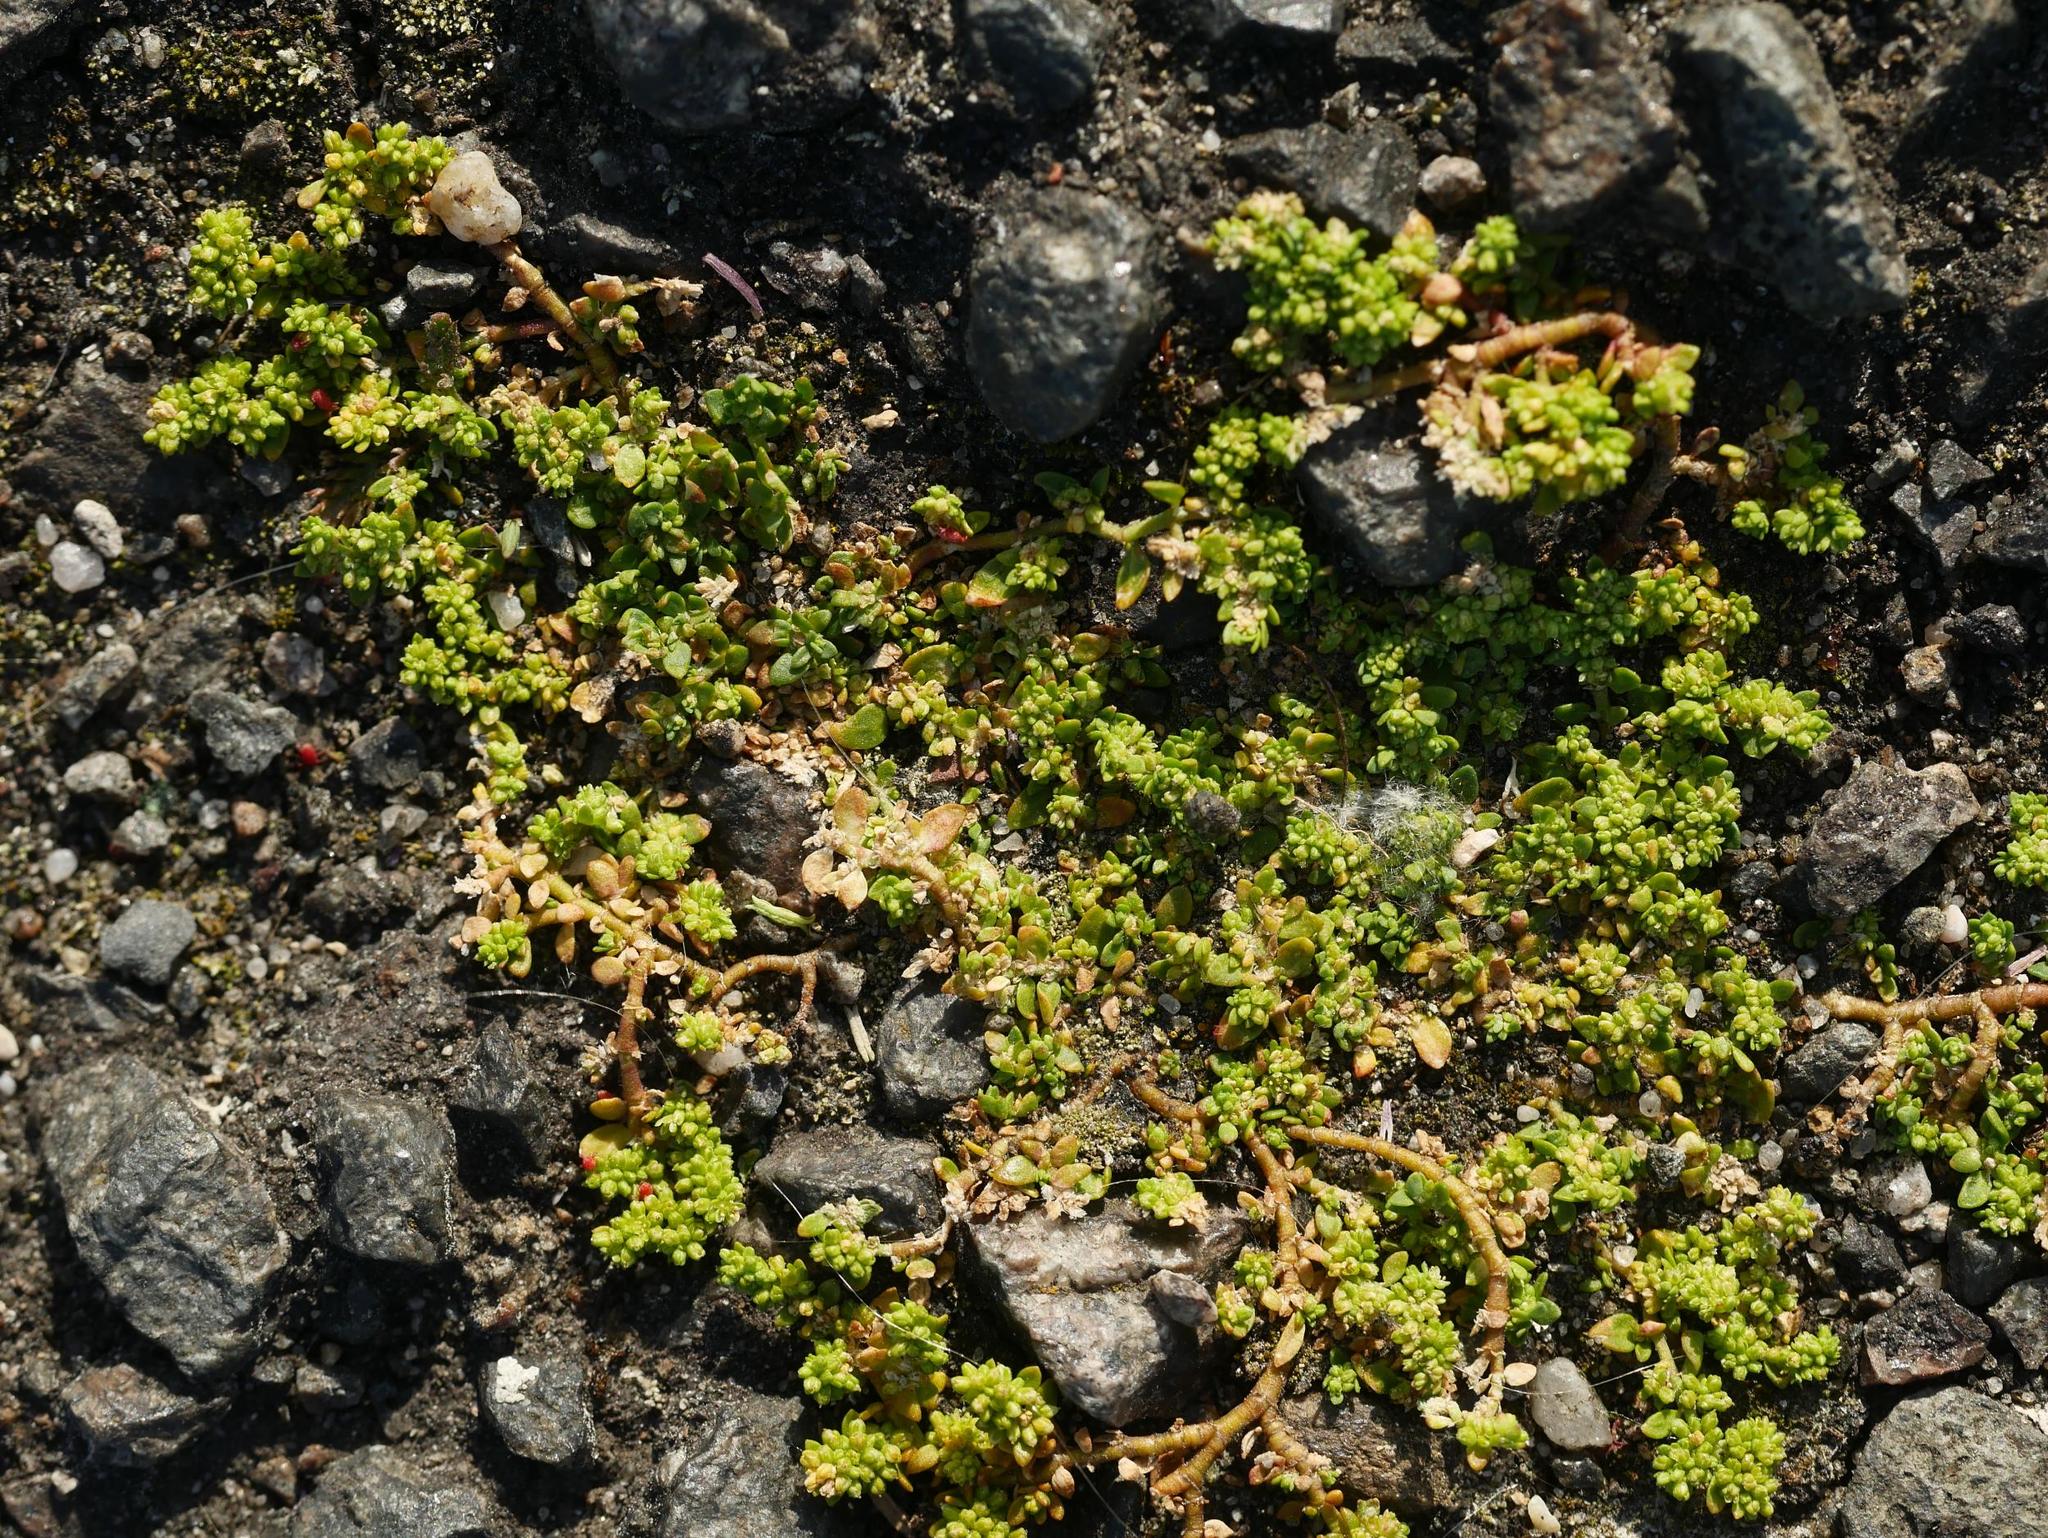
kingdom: Plantae
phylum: Tracheophyta
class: Magnoliopsida
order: Caryophyllales
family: Caryophyllaceae
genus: Herniaria
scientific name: Herniaria glabra
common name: Smooth rupturewort
